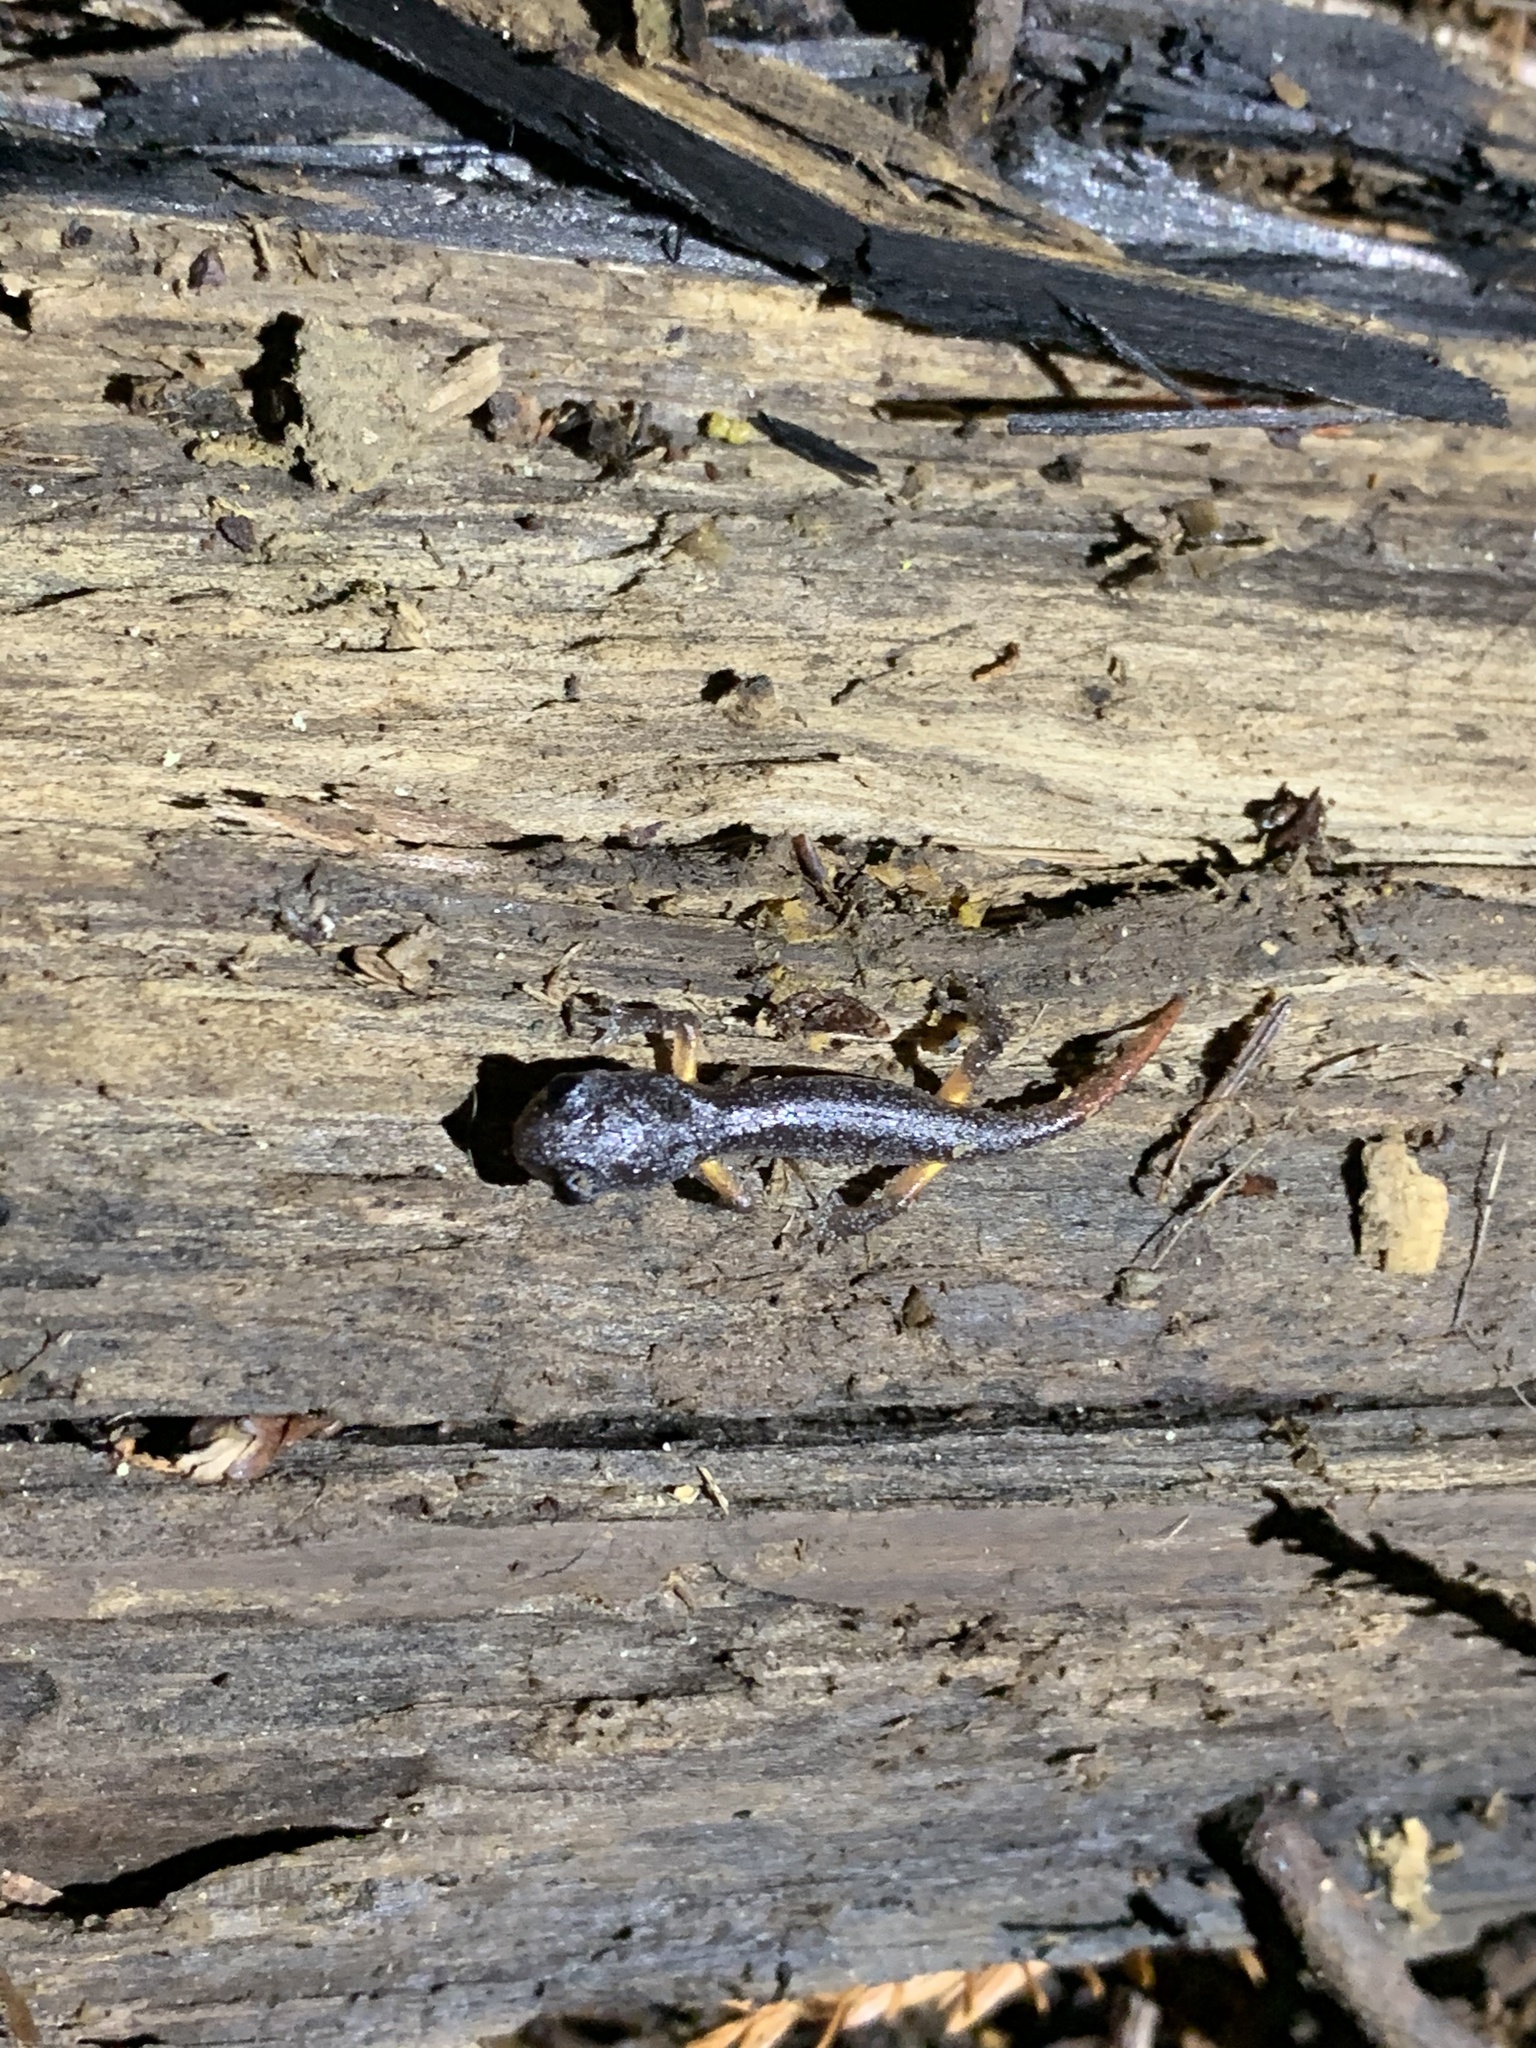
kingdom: Animalia
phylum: Chordata
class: Amphibia
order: Caudata
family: Plethodontidae
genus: Ensatina
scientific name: Ensatina eschscholtzii
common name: Ensatina
